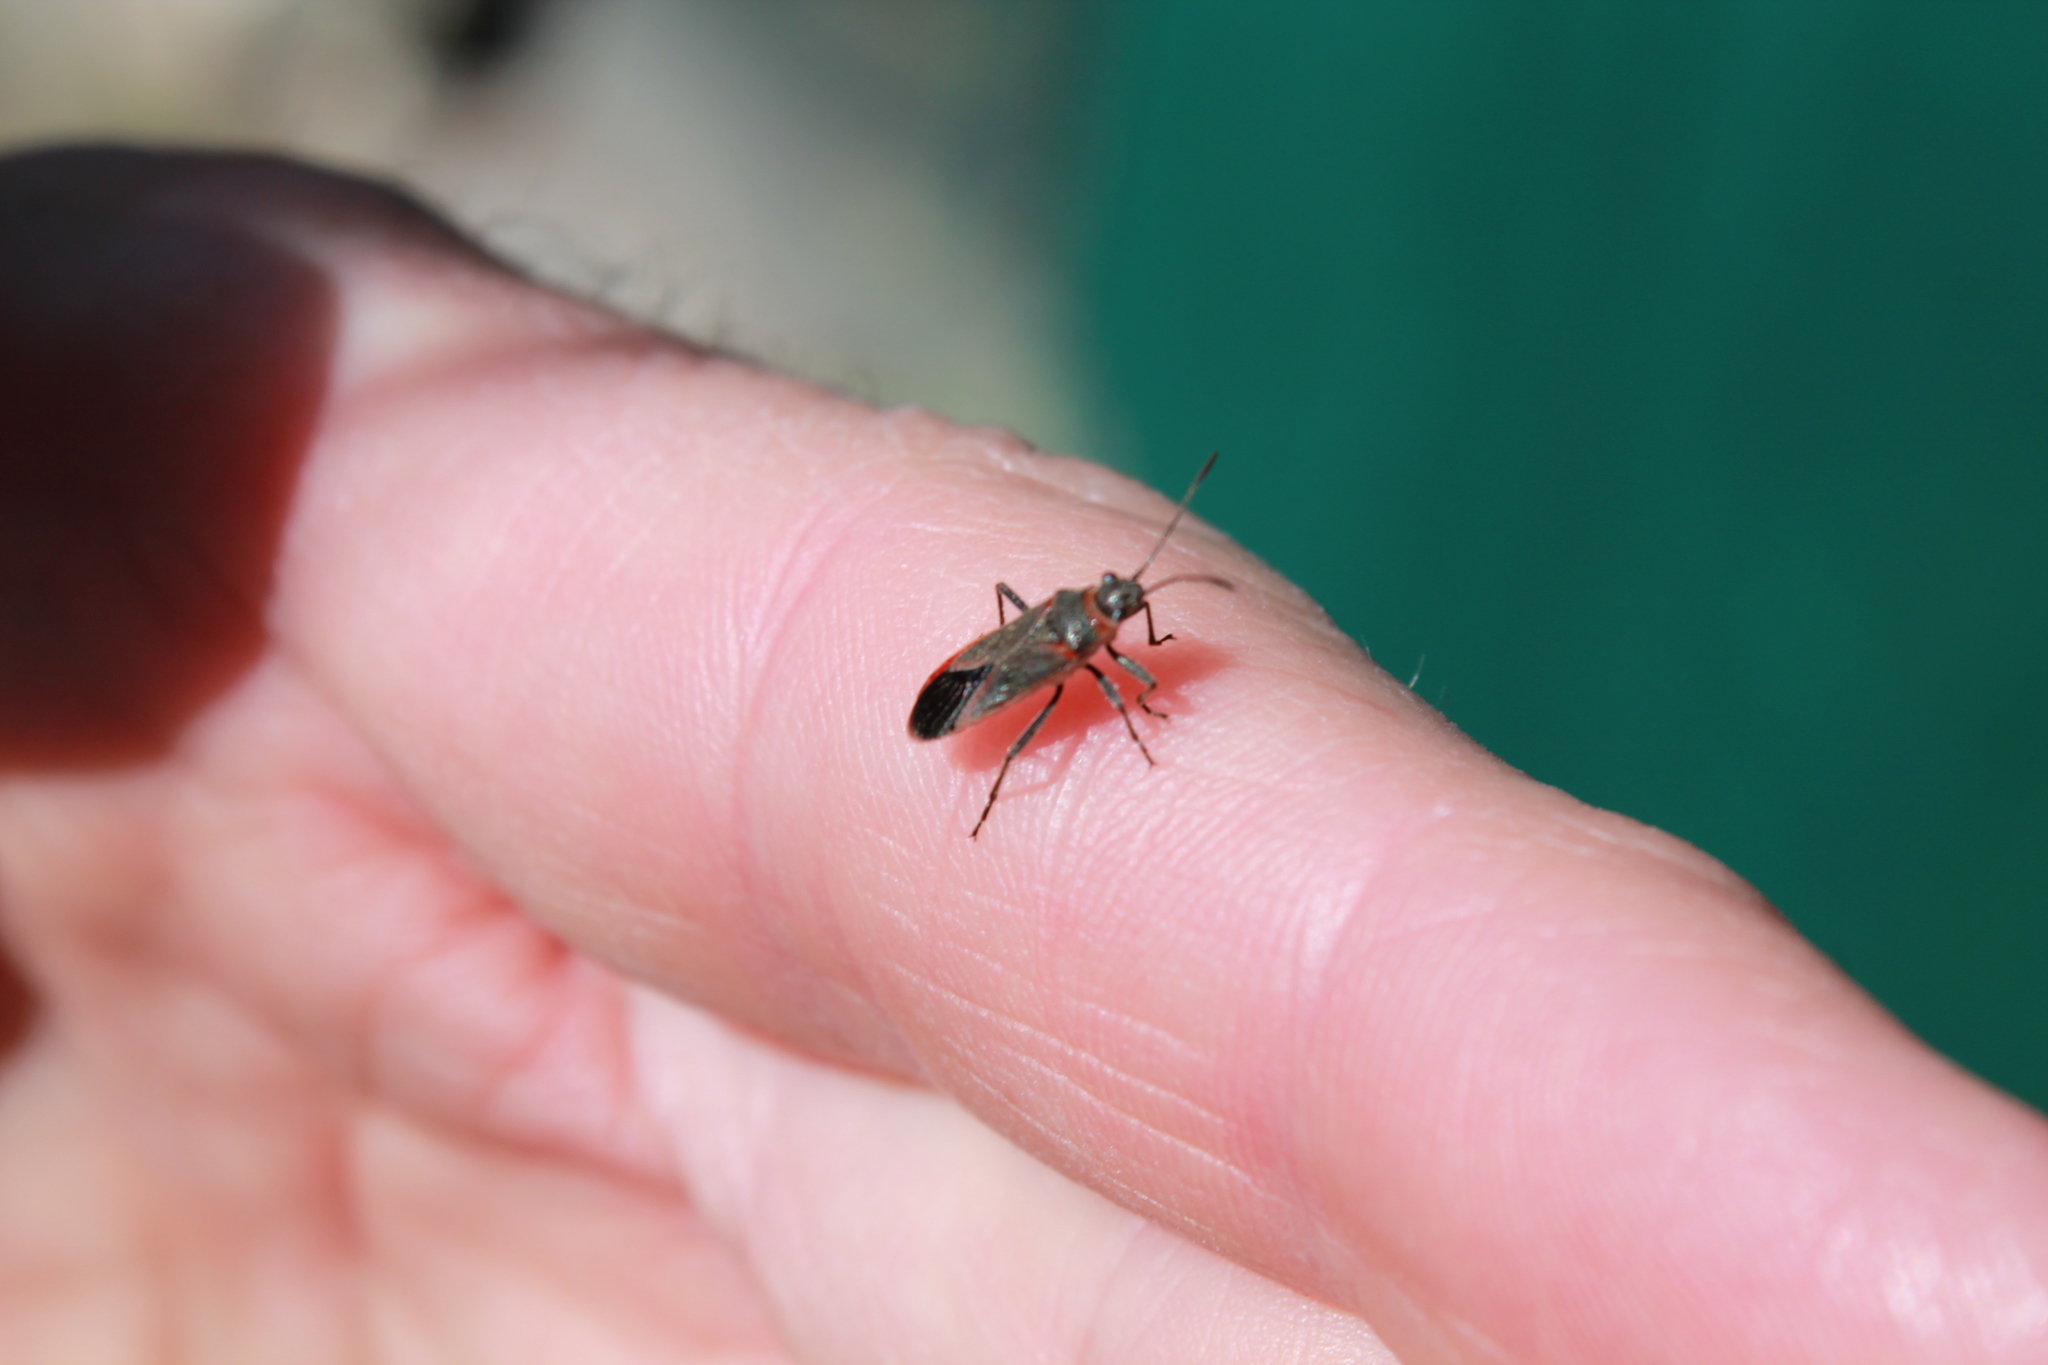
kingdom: Animalia
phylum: Arthropoda
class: Insecta
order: Hemiptera
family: Lygaeidae
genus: Arocatus
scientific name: Arocatus rusticus
